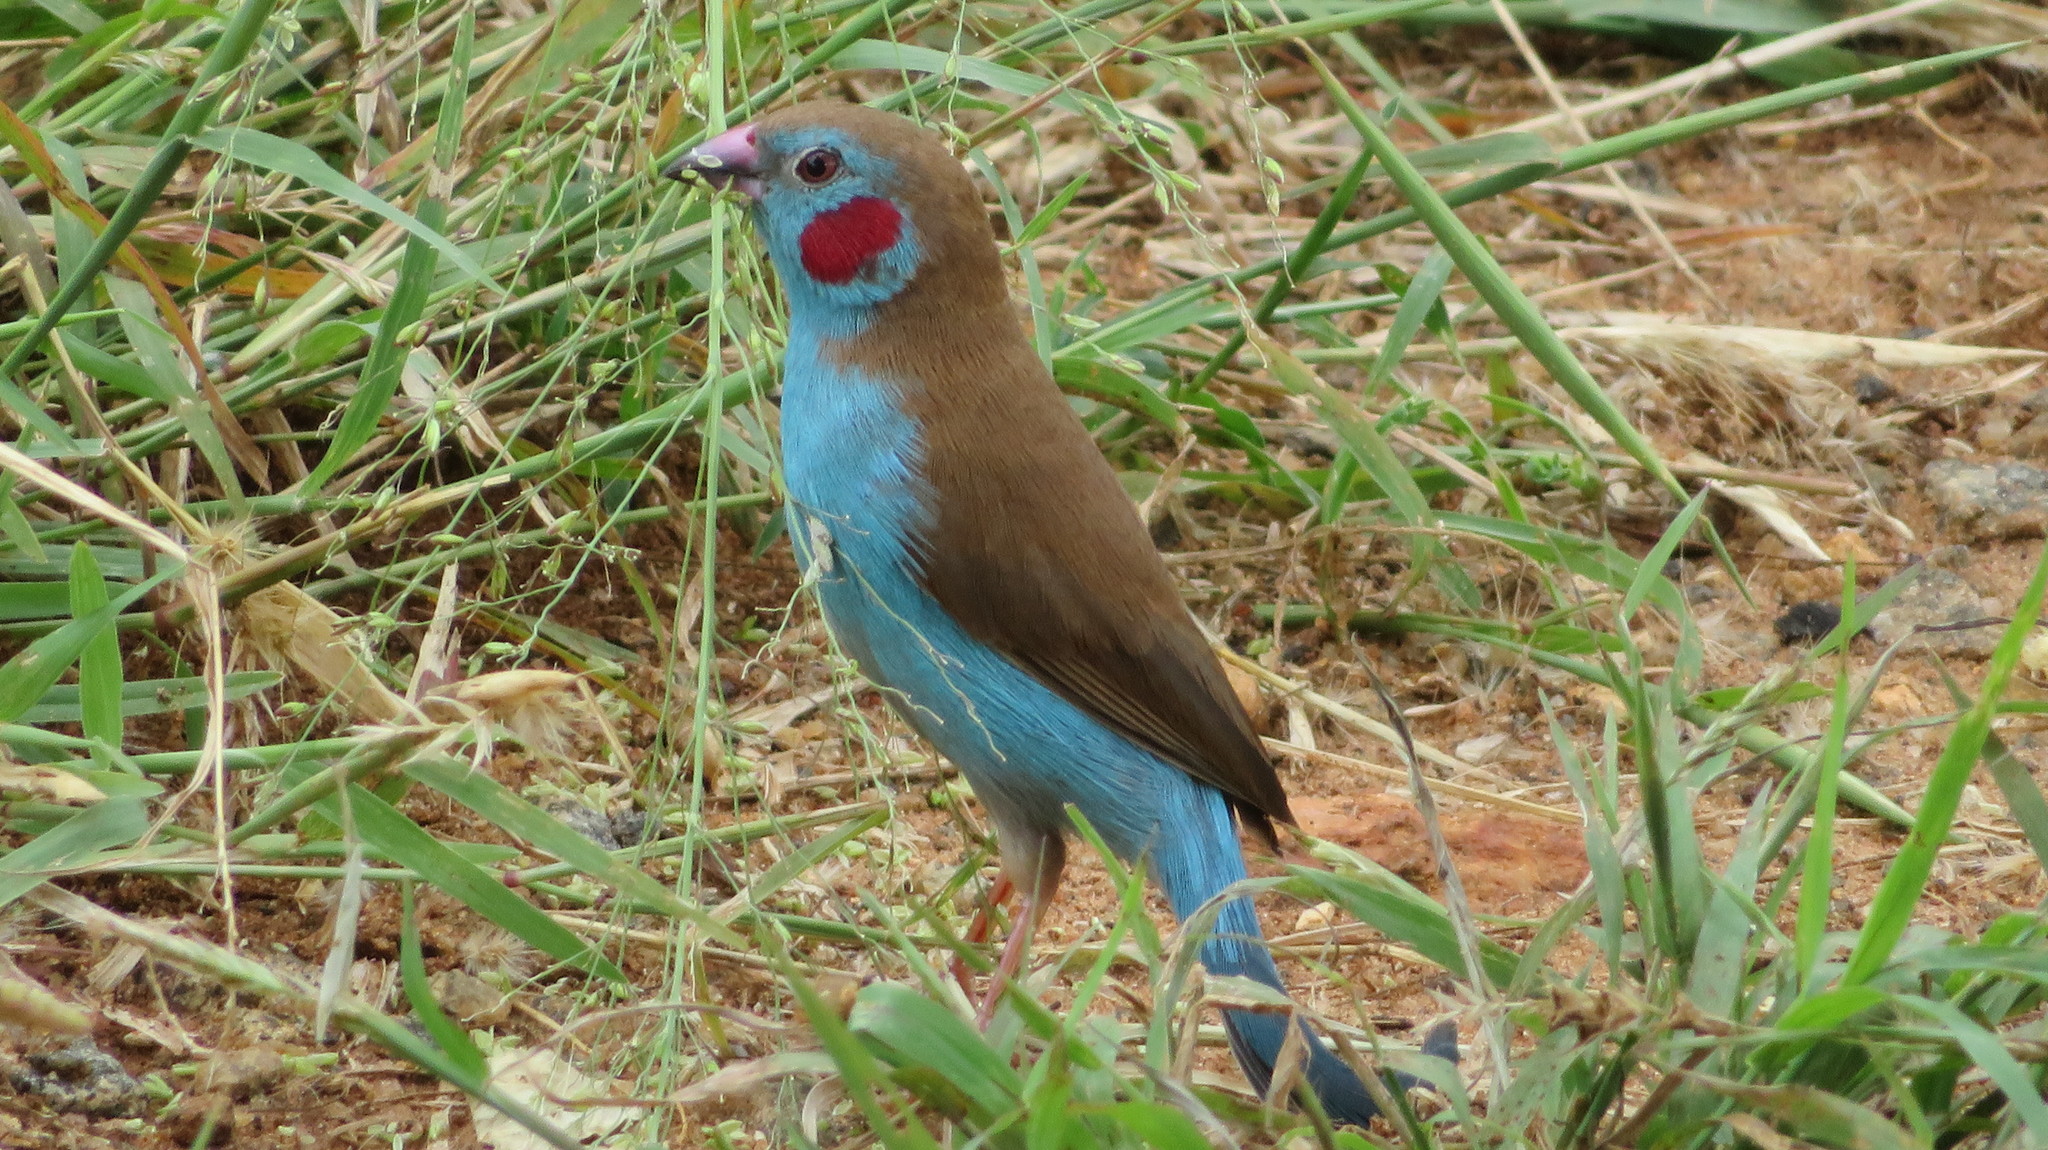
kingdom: Animalia
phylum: Chordata
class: Aves
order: Passeriformes
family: Estrildidae
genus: Uraeginthus
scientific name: Uraeginthus bengalus
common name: Red-cheeked cordon-bleu
